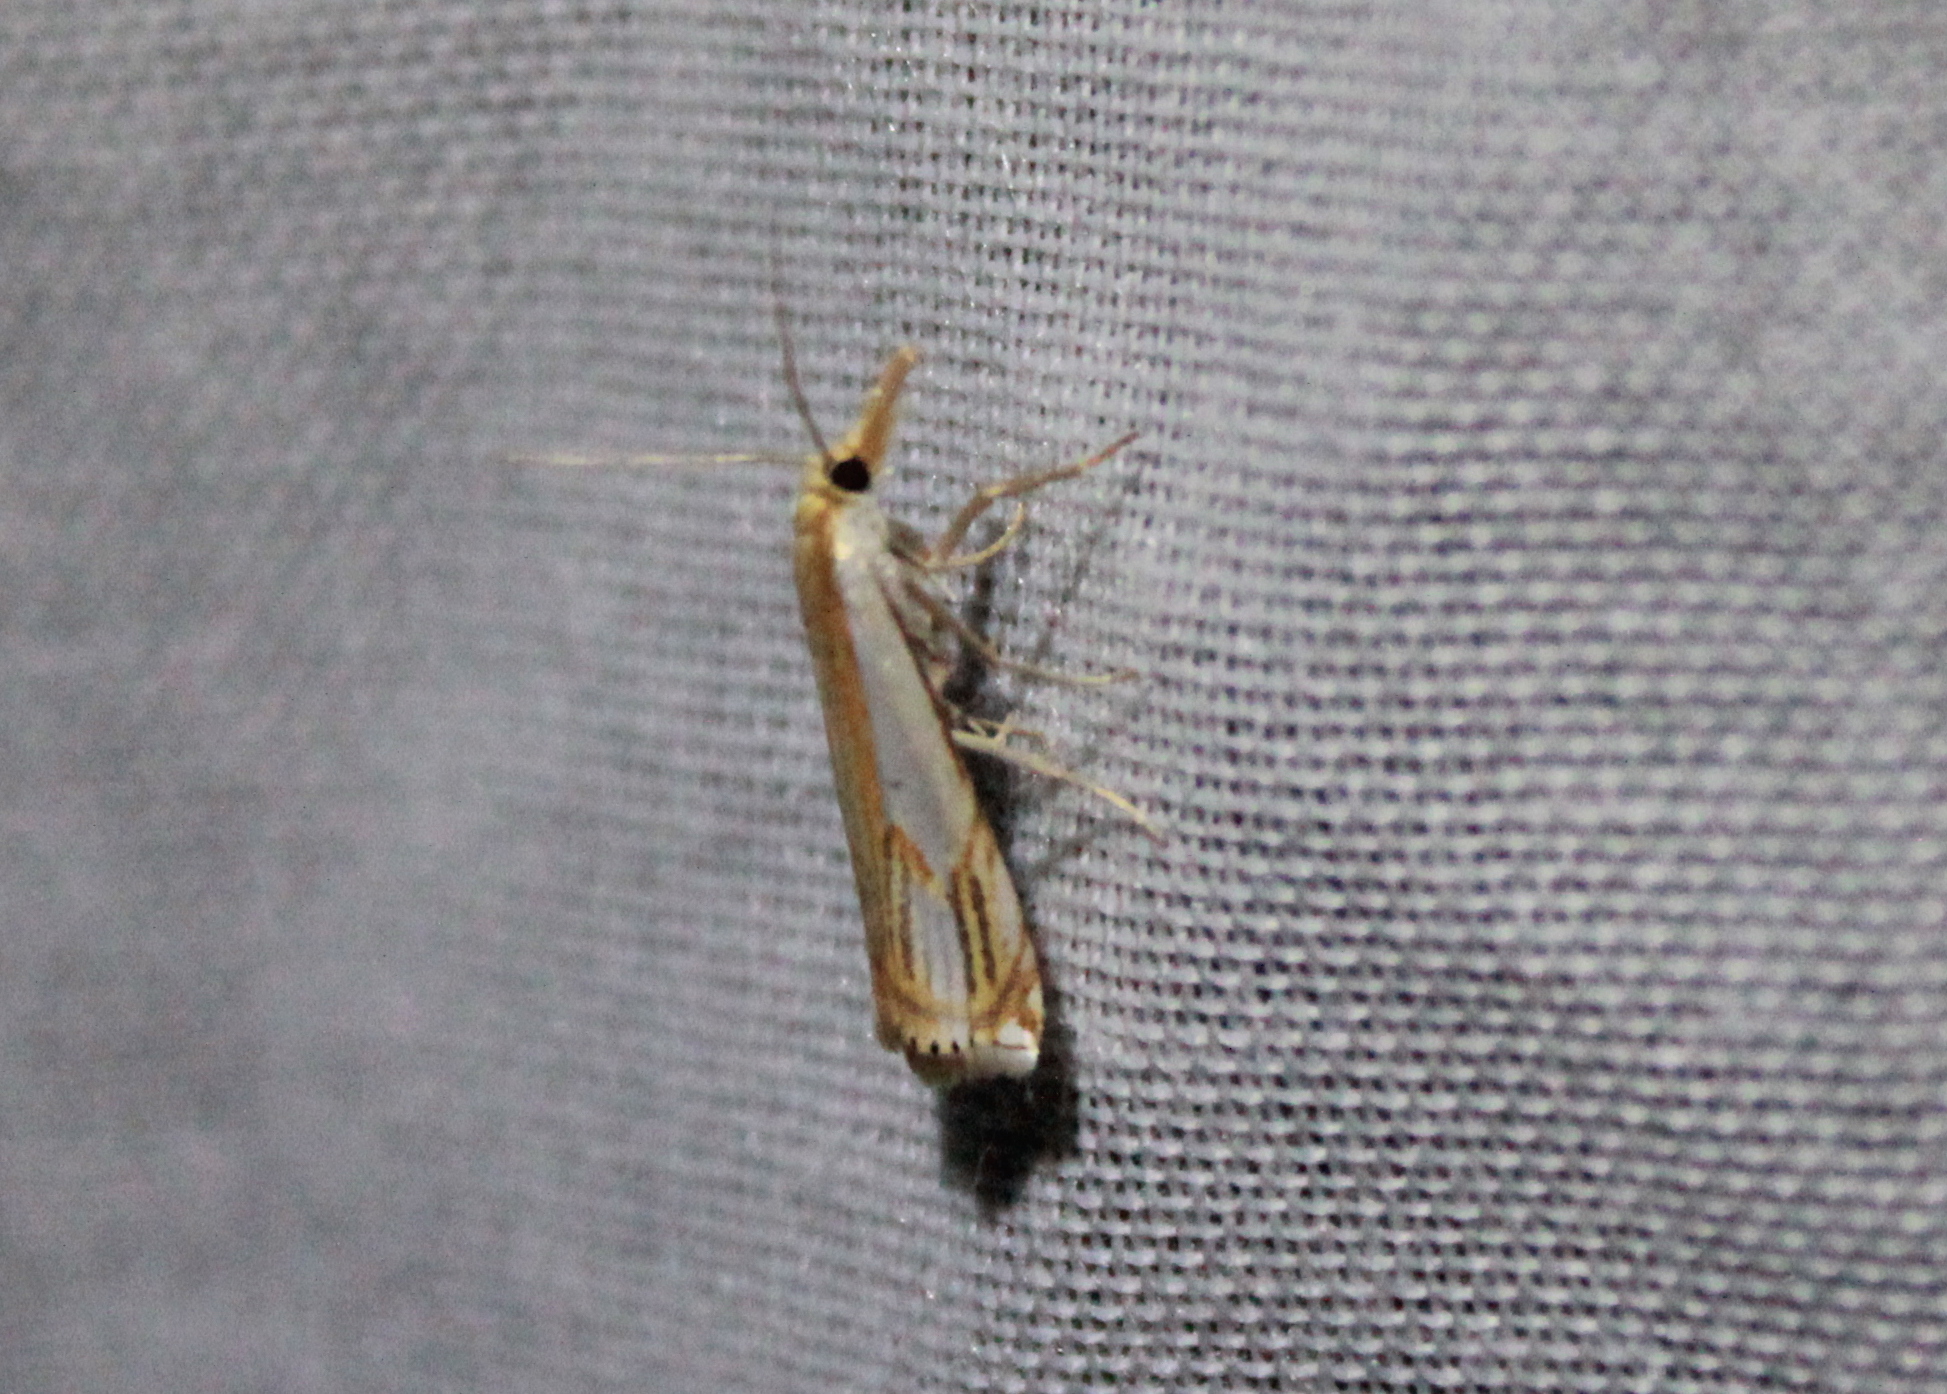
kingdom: Animalia
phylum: Arthropoda
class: Insecta
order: Lepidoptera
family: Crambidae
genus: Crambus
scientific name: Crambus agitatellus
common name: Double-banded grass-veneer
